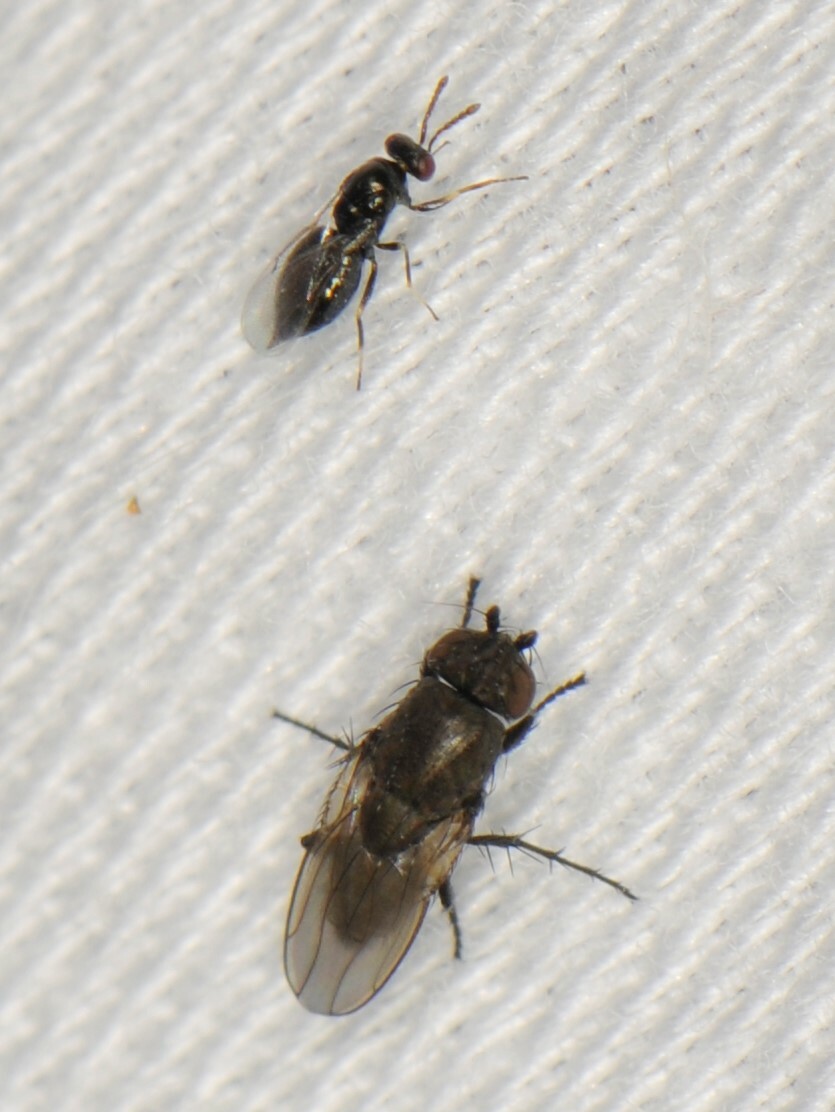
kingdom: Animalia
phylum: Arthropoda
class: Insecta
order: Diptera
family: Sphaeroceridae
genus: Rachispoda
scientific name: Rachispoda
